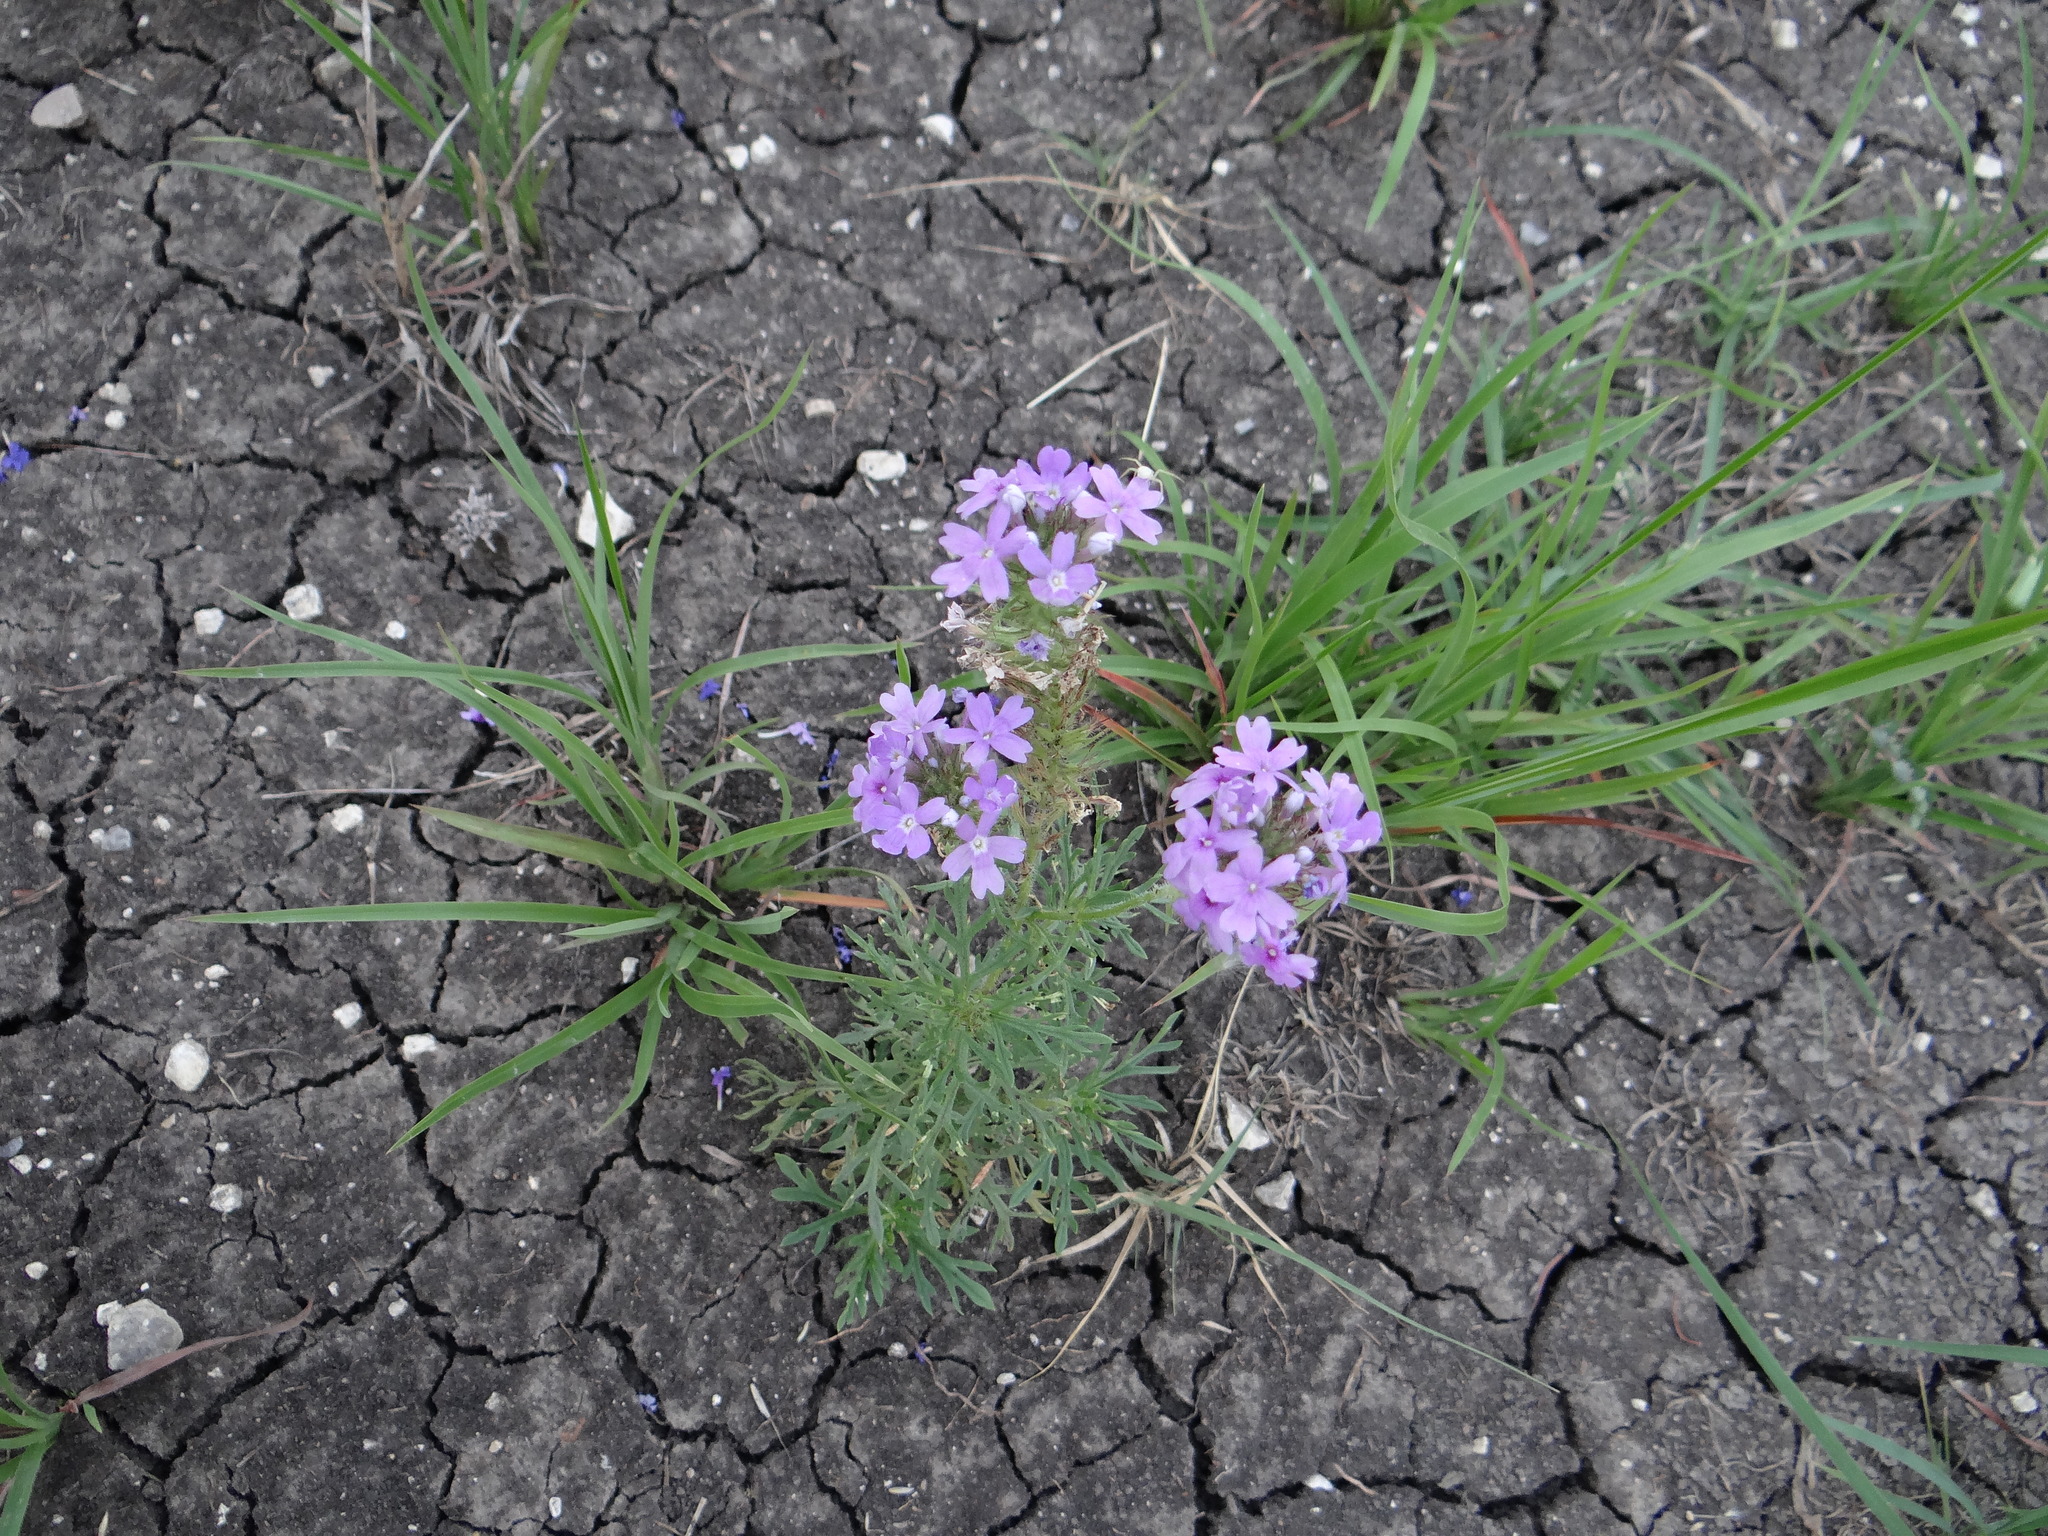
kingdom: Plantae
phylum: Tracheophyta
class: Magnoliopsida
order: Lamiales
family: Verbenaceae
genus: Verbena
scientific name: Verbena bipinnatifida
